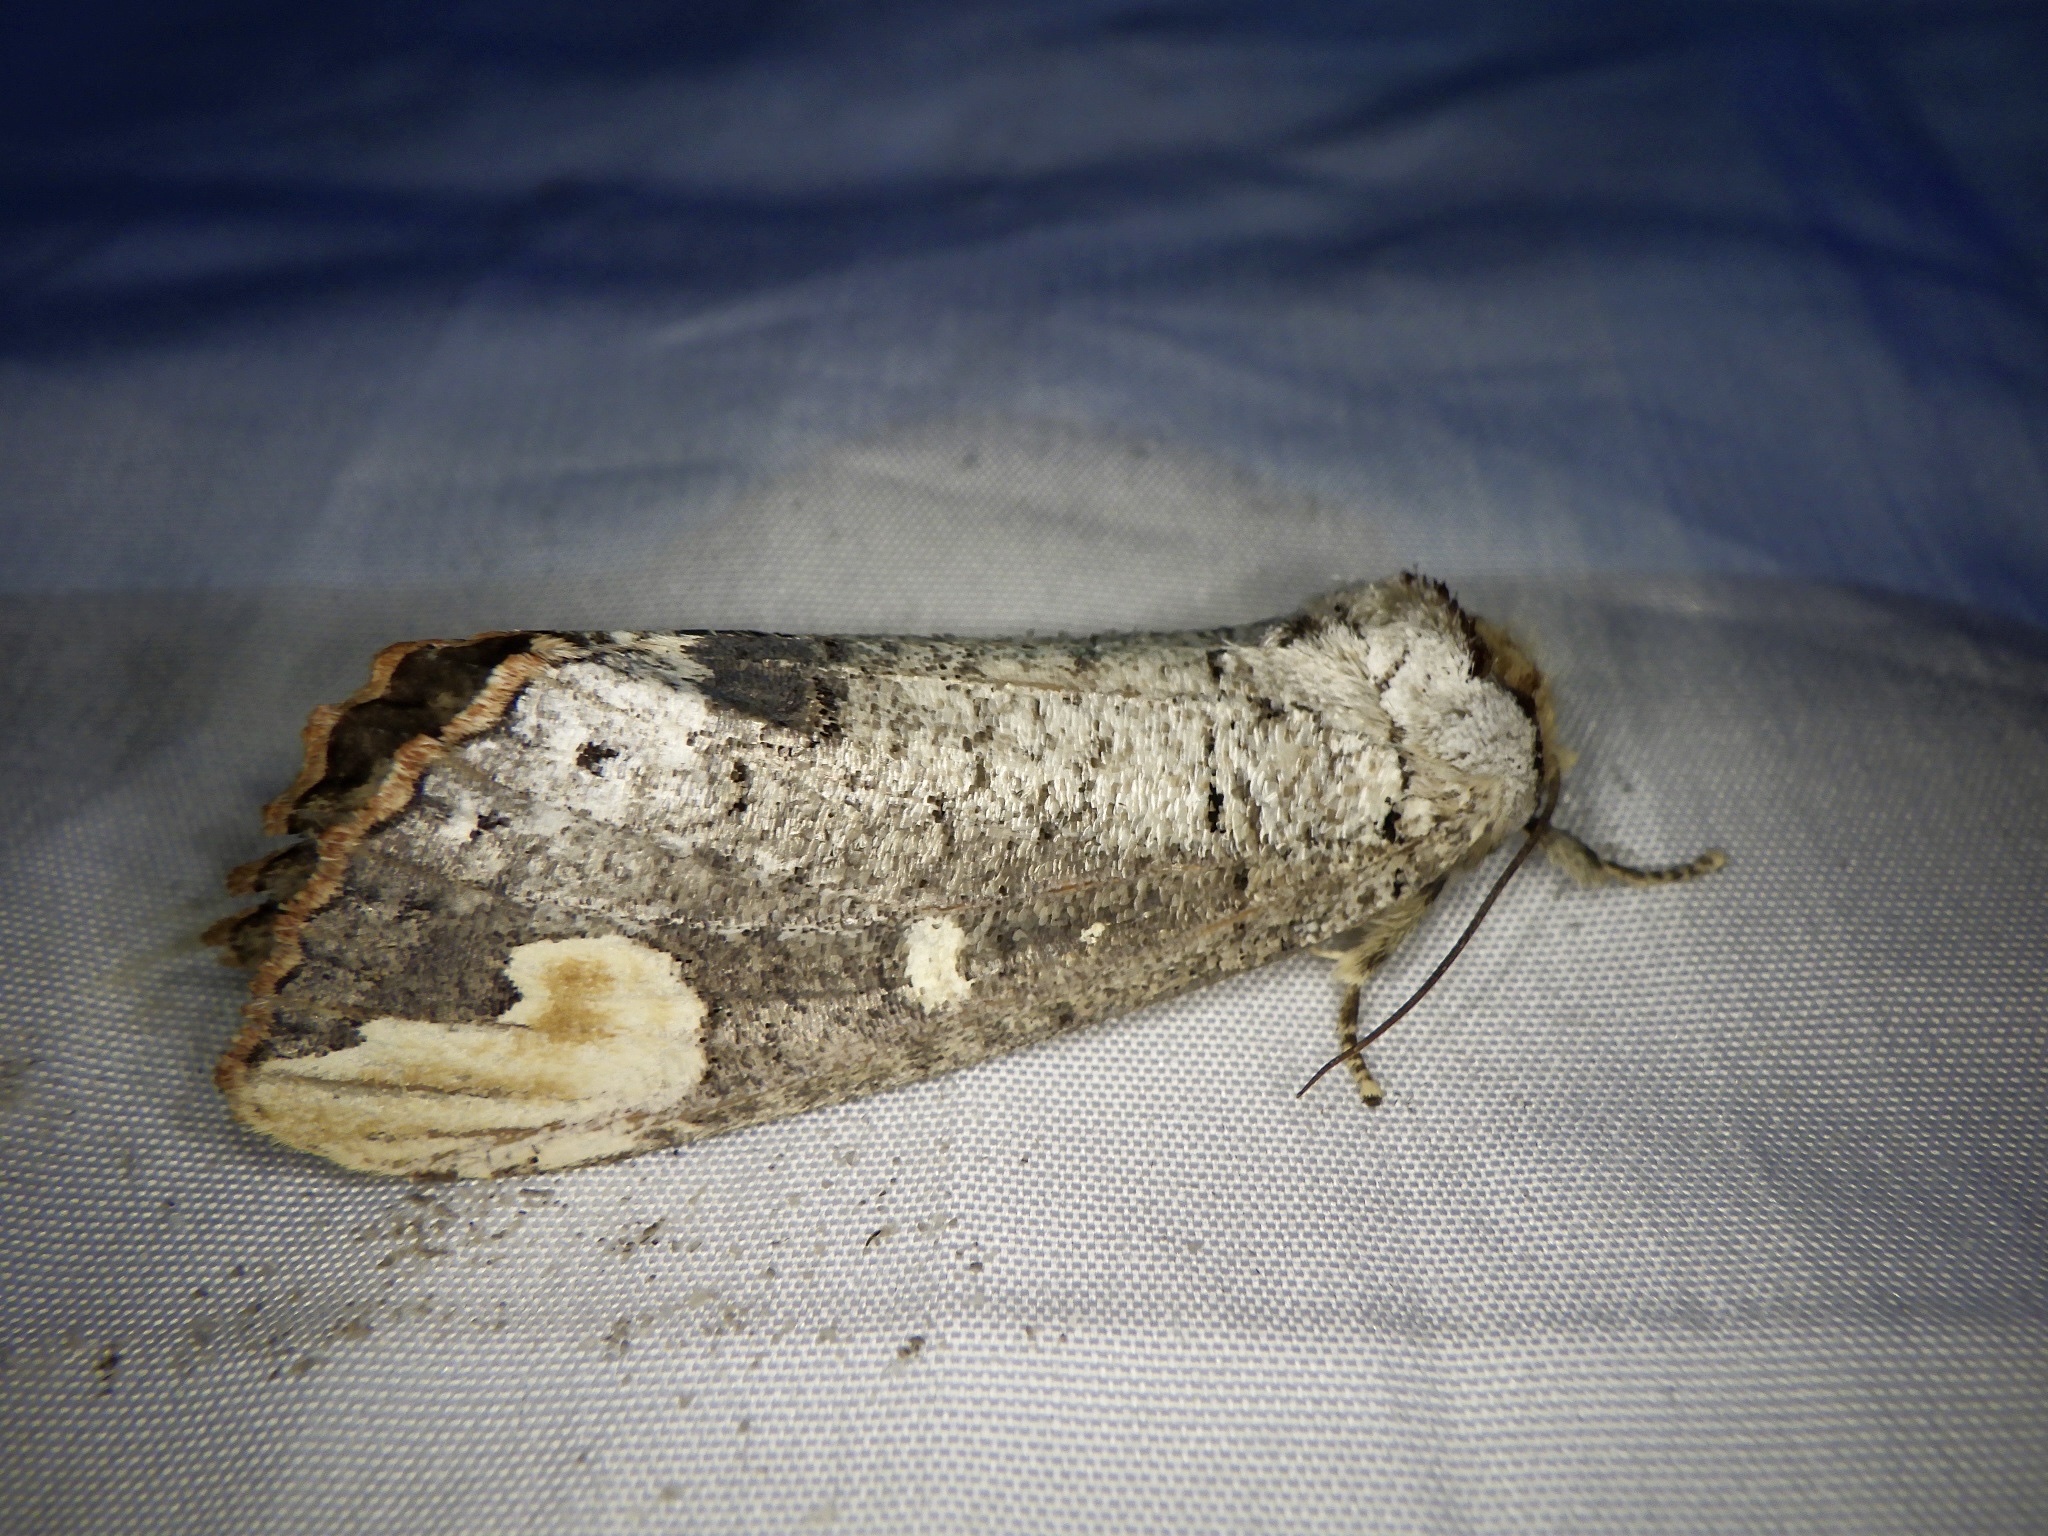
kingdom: Animalia
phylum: Arthropoda
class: Insecta
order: Lepidoptera
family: Notodontidae
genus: Phalera
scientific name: Phalera angustipennis
